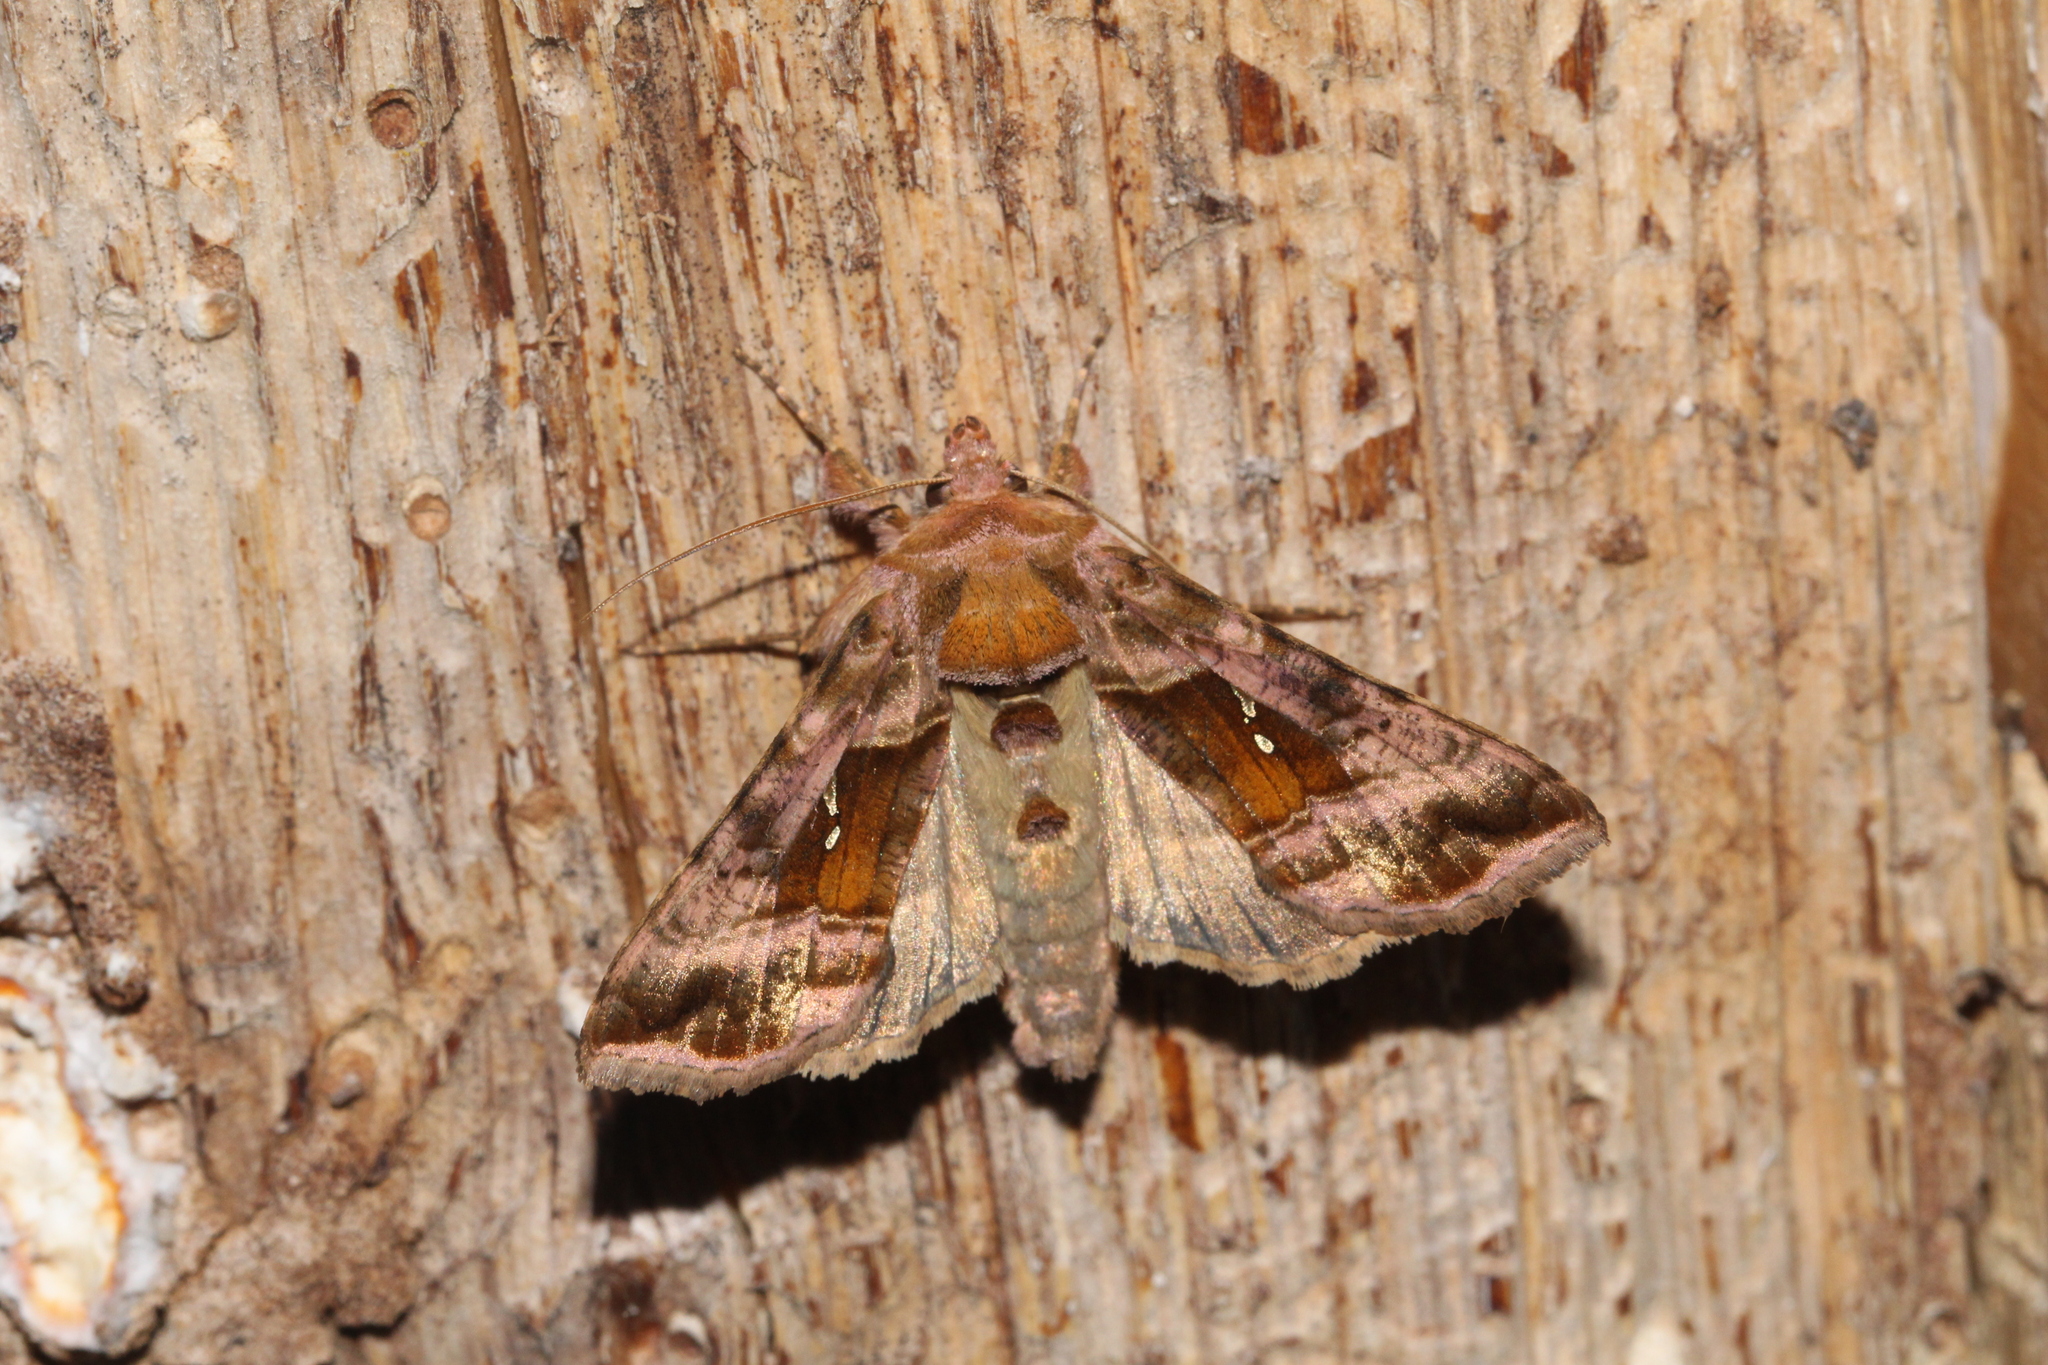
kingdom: Animalia
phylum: Arthropoda
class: Insecta
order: Lepidoptera
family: Noctuidae
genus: Autographa
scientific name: Autographa jota
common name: Plain golden y
